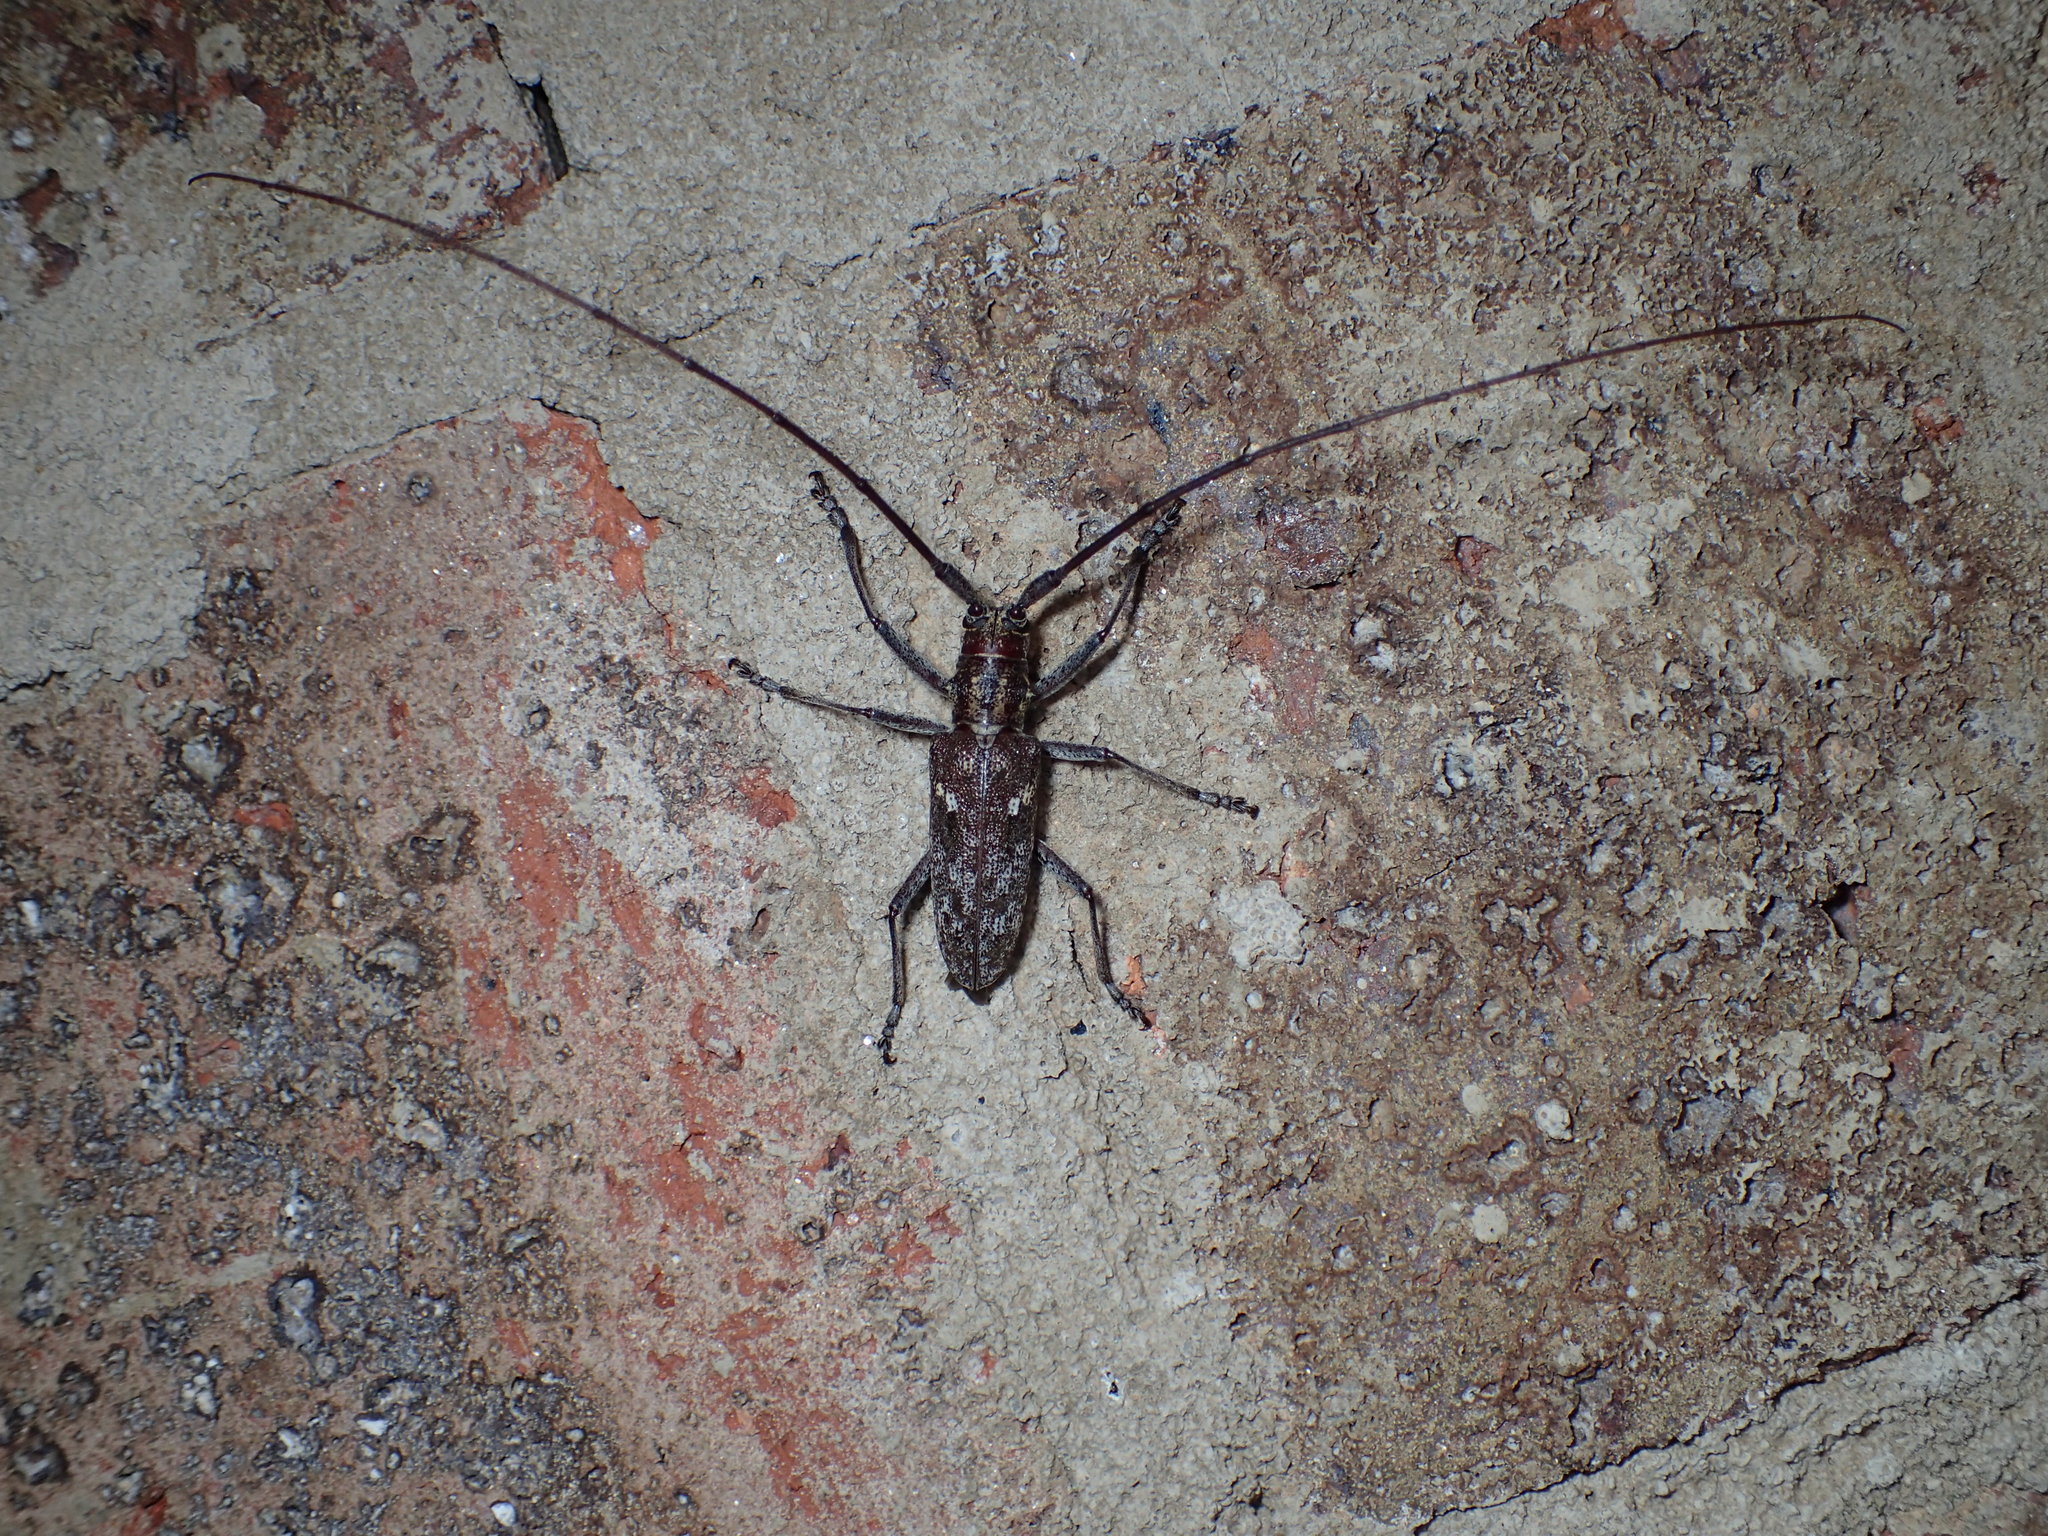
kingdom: Animalia
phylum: Arthropoda
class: Insecta
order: Coleoptera
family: Cerambycidae
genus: Monochamus
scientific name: Monochamus carolinensis
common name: Carolina pine sawyer
